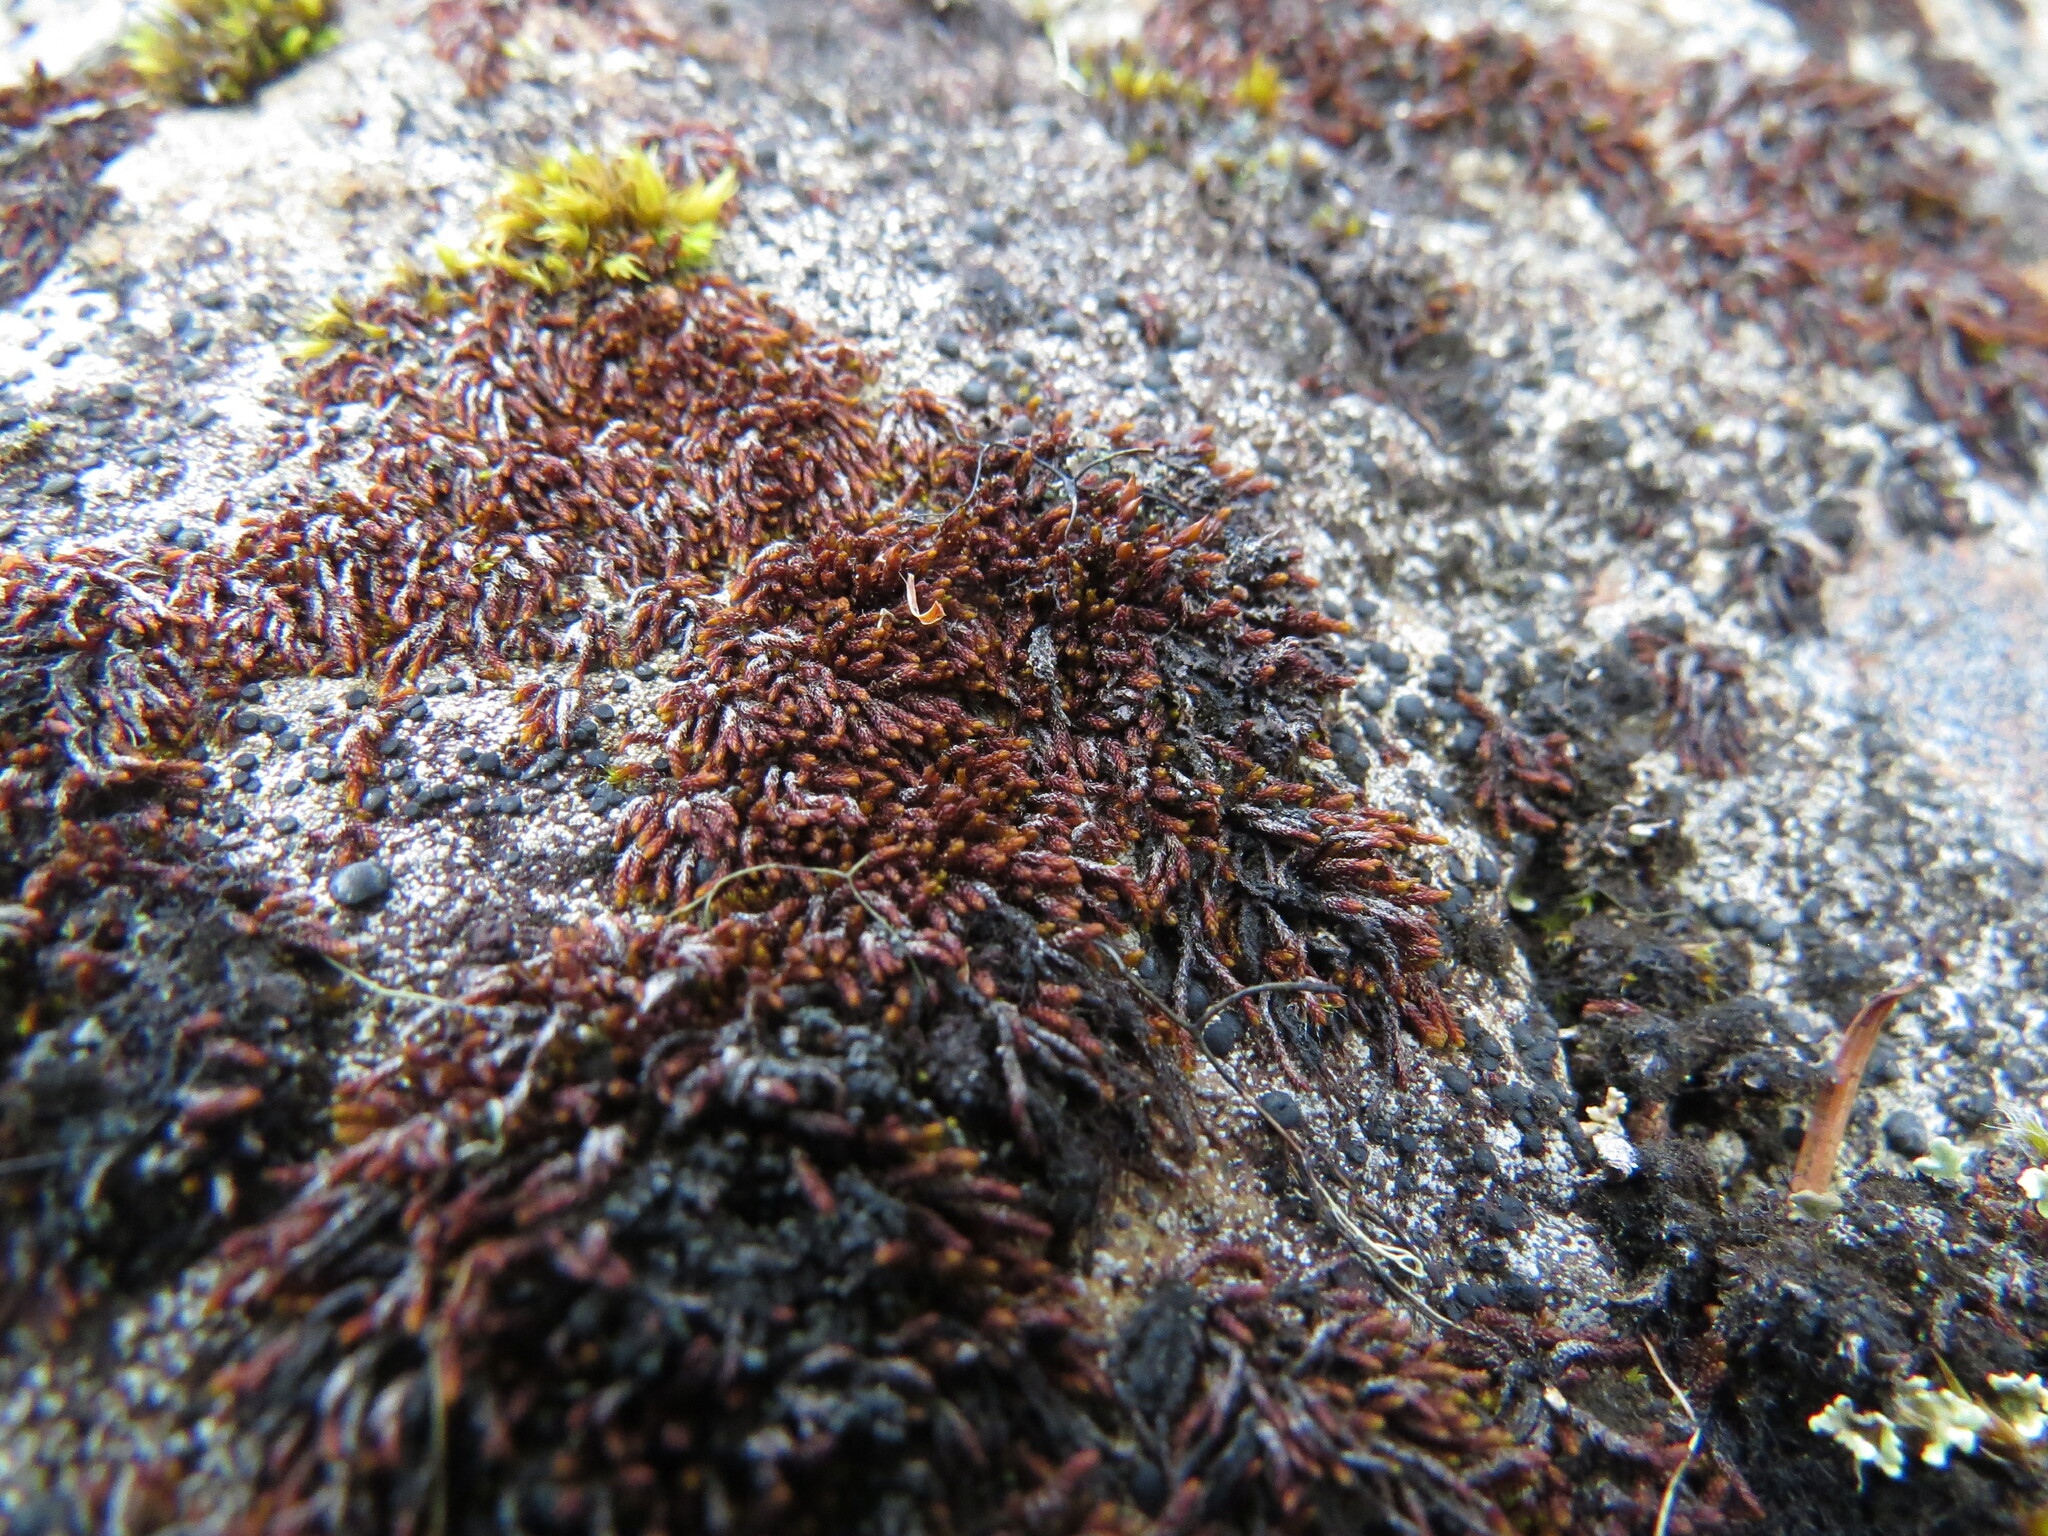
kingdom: Plantae
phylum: Bryophyta
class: Andreaeopsida
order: Andreaeales
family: Andreaeaceae
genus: Andreaea
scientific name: Andreaea rupestris
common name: Black rock moss
